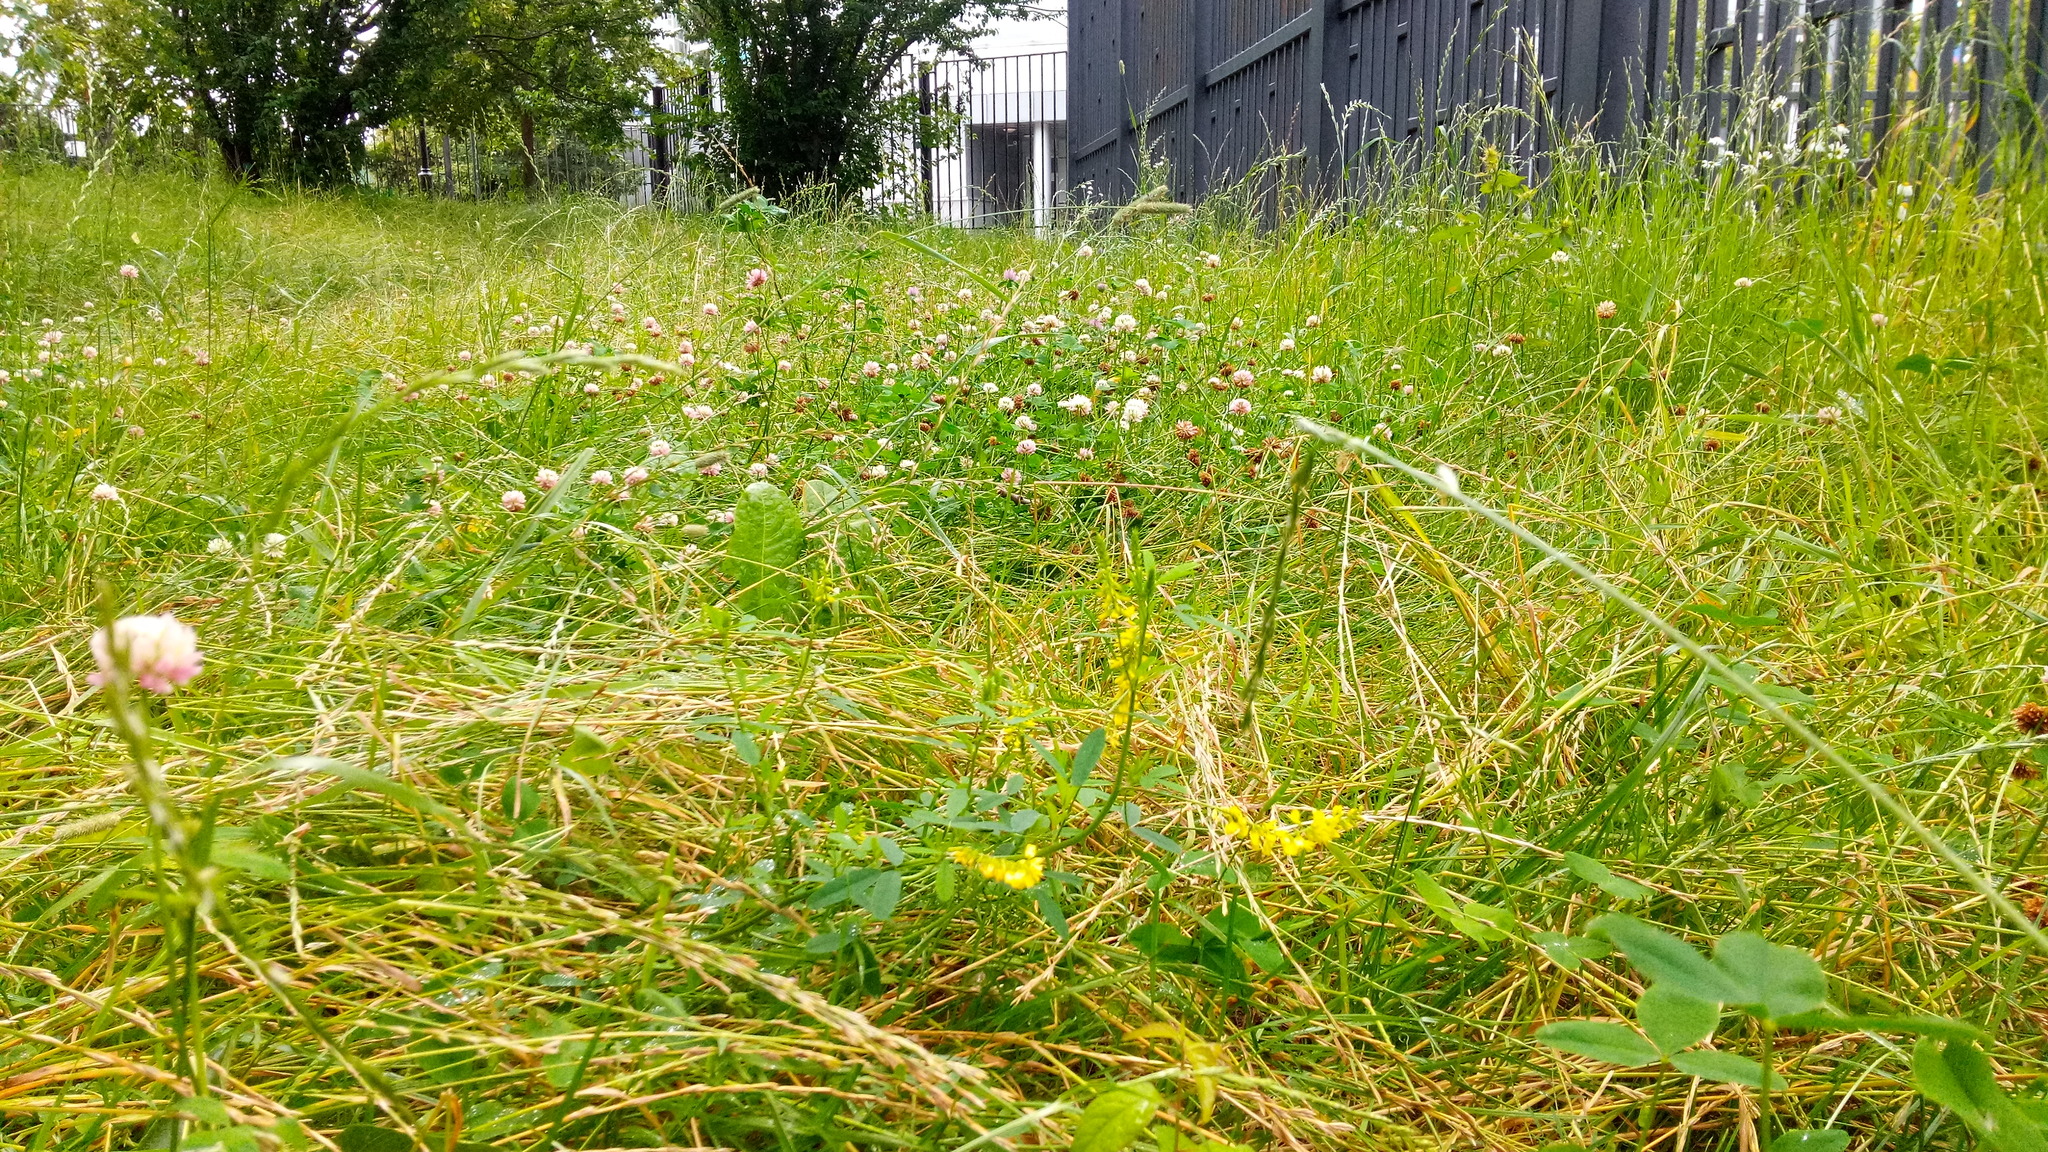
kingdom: Plantae
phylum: Tracheophyta
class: Magnoliopsida
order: Fabales
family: Fabaceae
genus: Melilotus
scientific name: Melilotus officinalis
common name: Sweetclover
